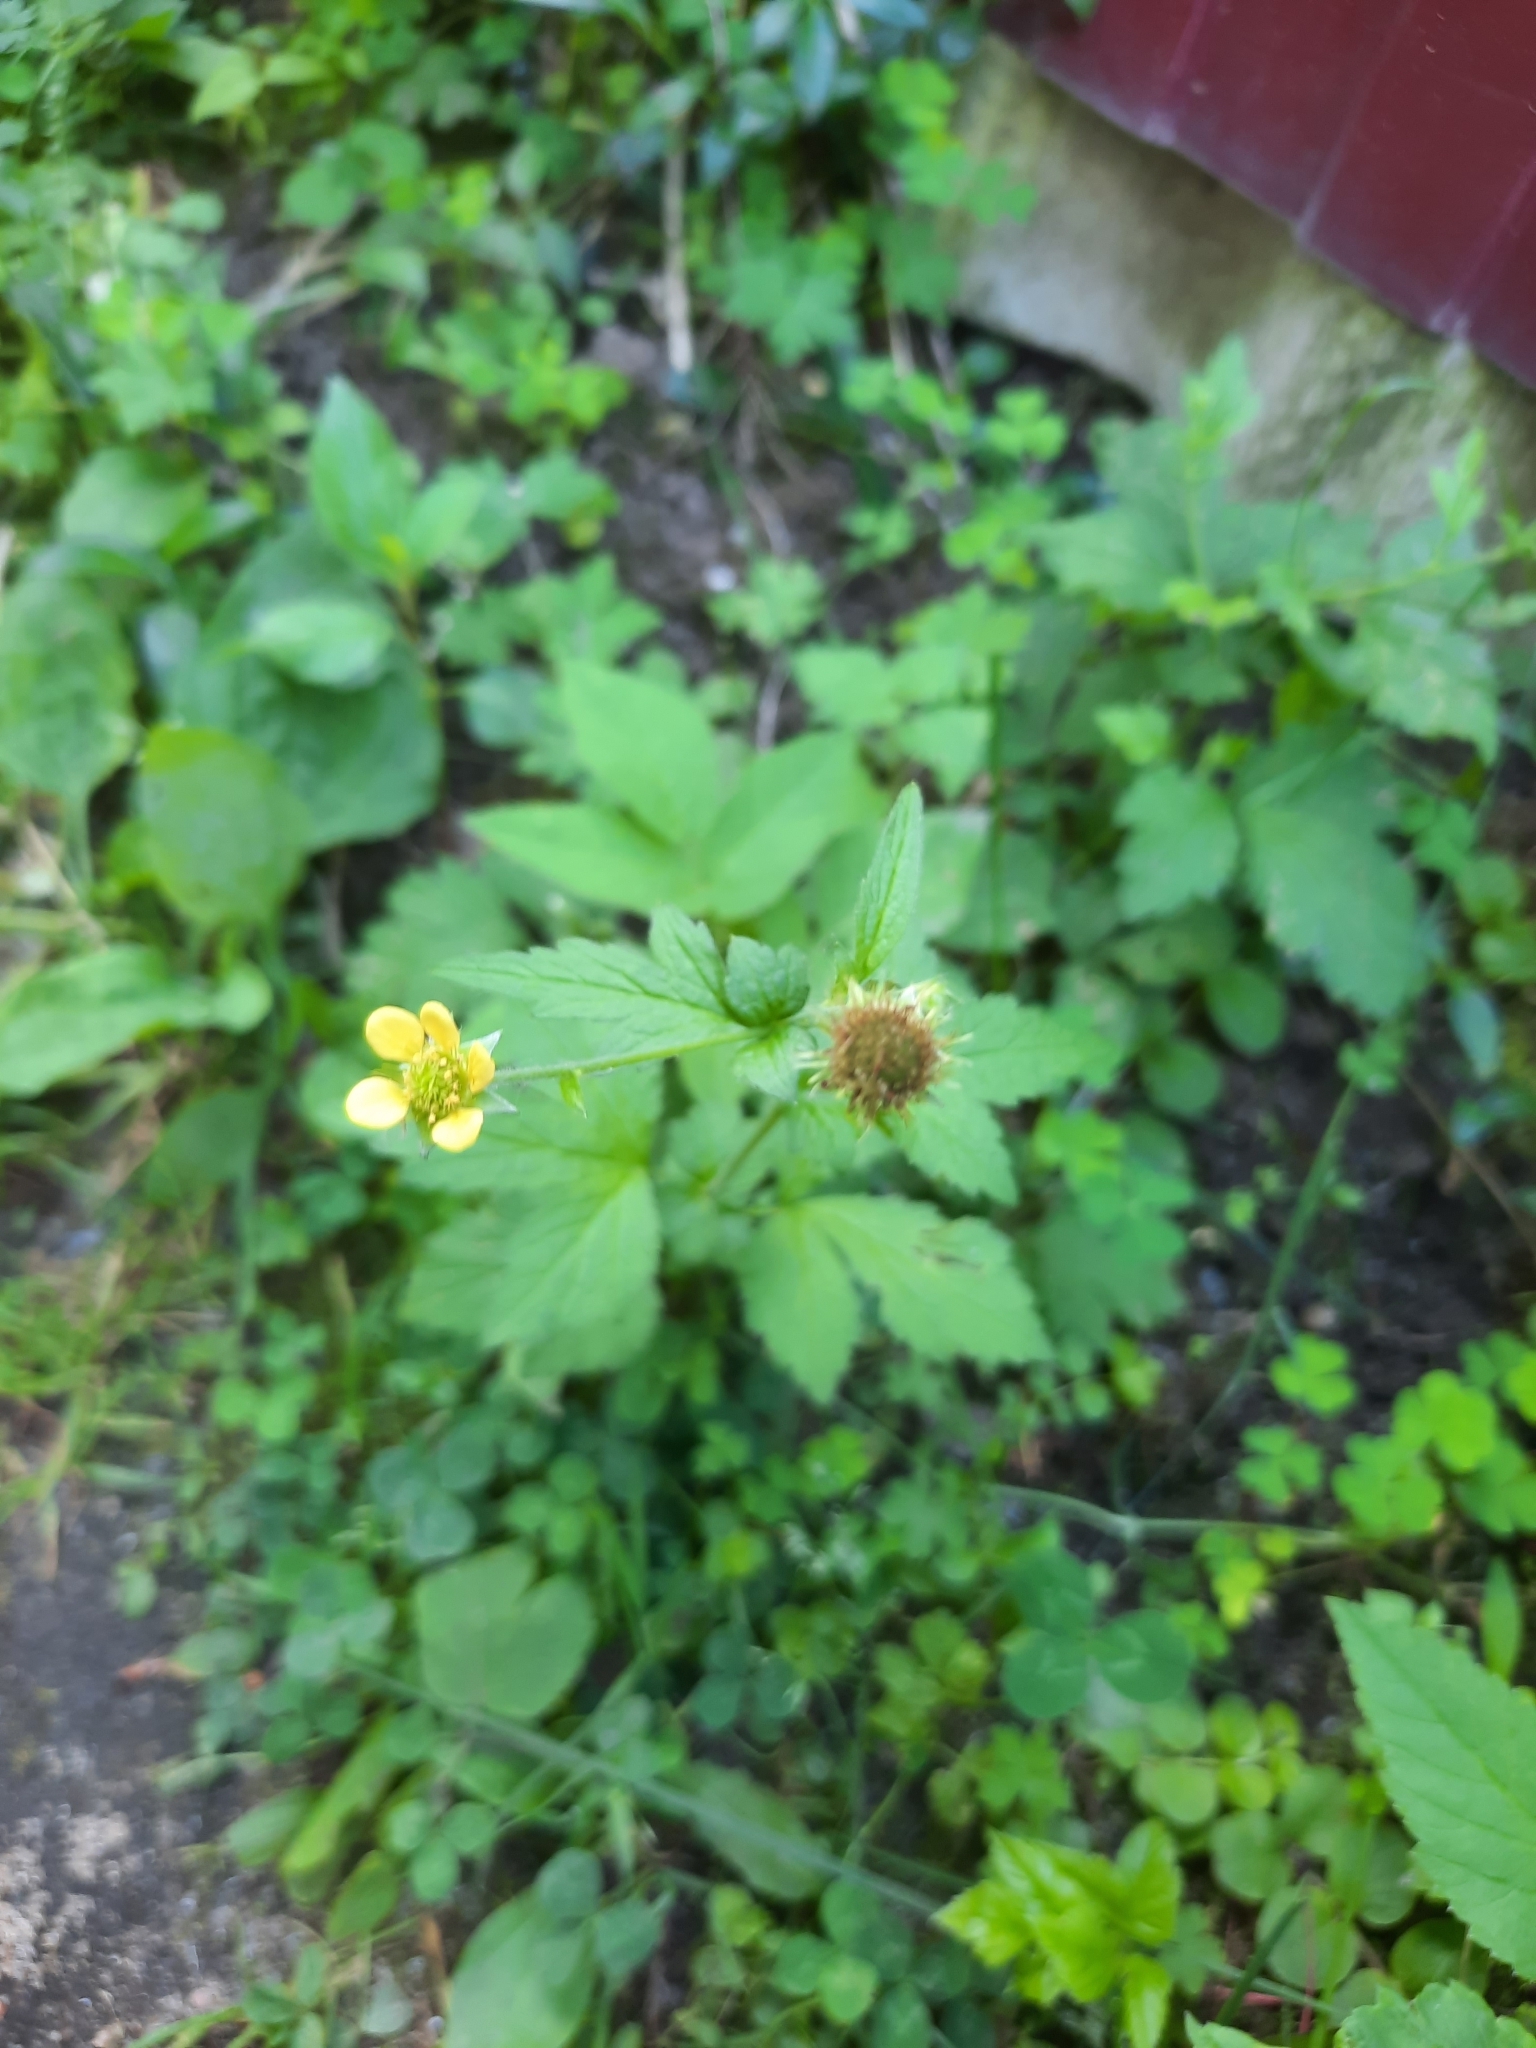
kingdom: Plantae
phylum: Tracheophyta
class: Magnoliopsida
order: Rosales
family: Rosaceae
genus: Geum
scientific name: Geum urbanum
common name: Wood avens
